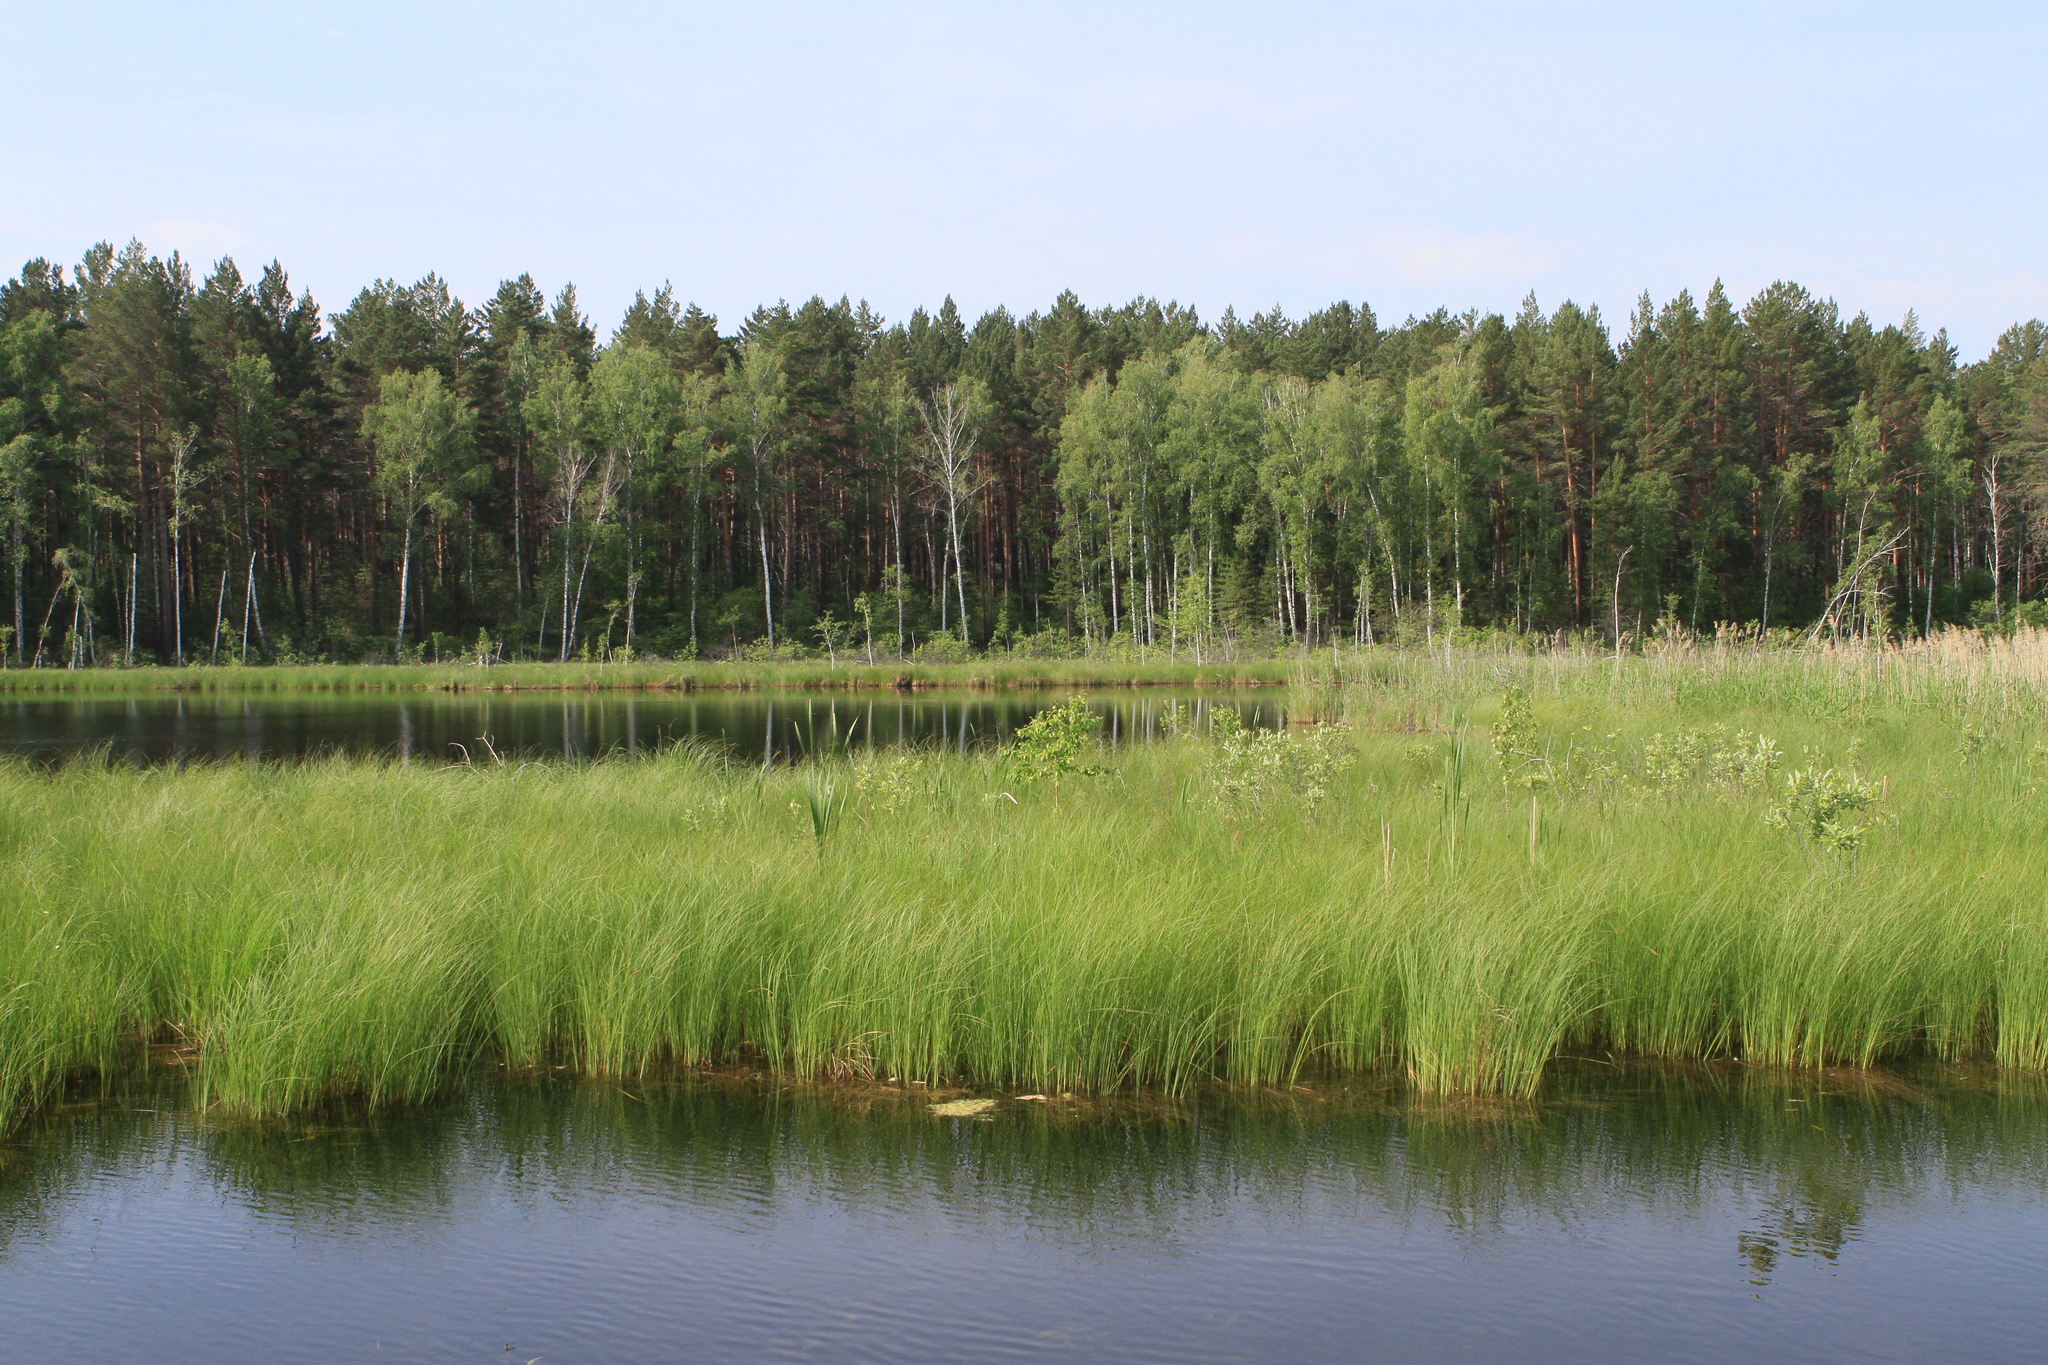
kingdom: Plantae
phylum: Tracheophyta
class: Pinopsida
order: Pinales
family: Pinaceae
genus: Pinus
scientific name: Pinus sylvestris
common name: Scots pine
